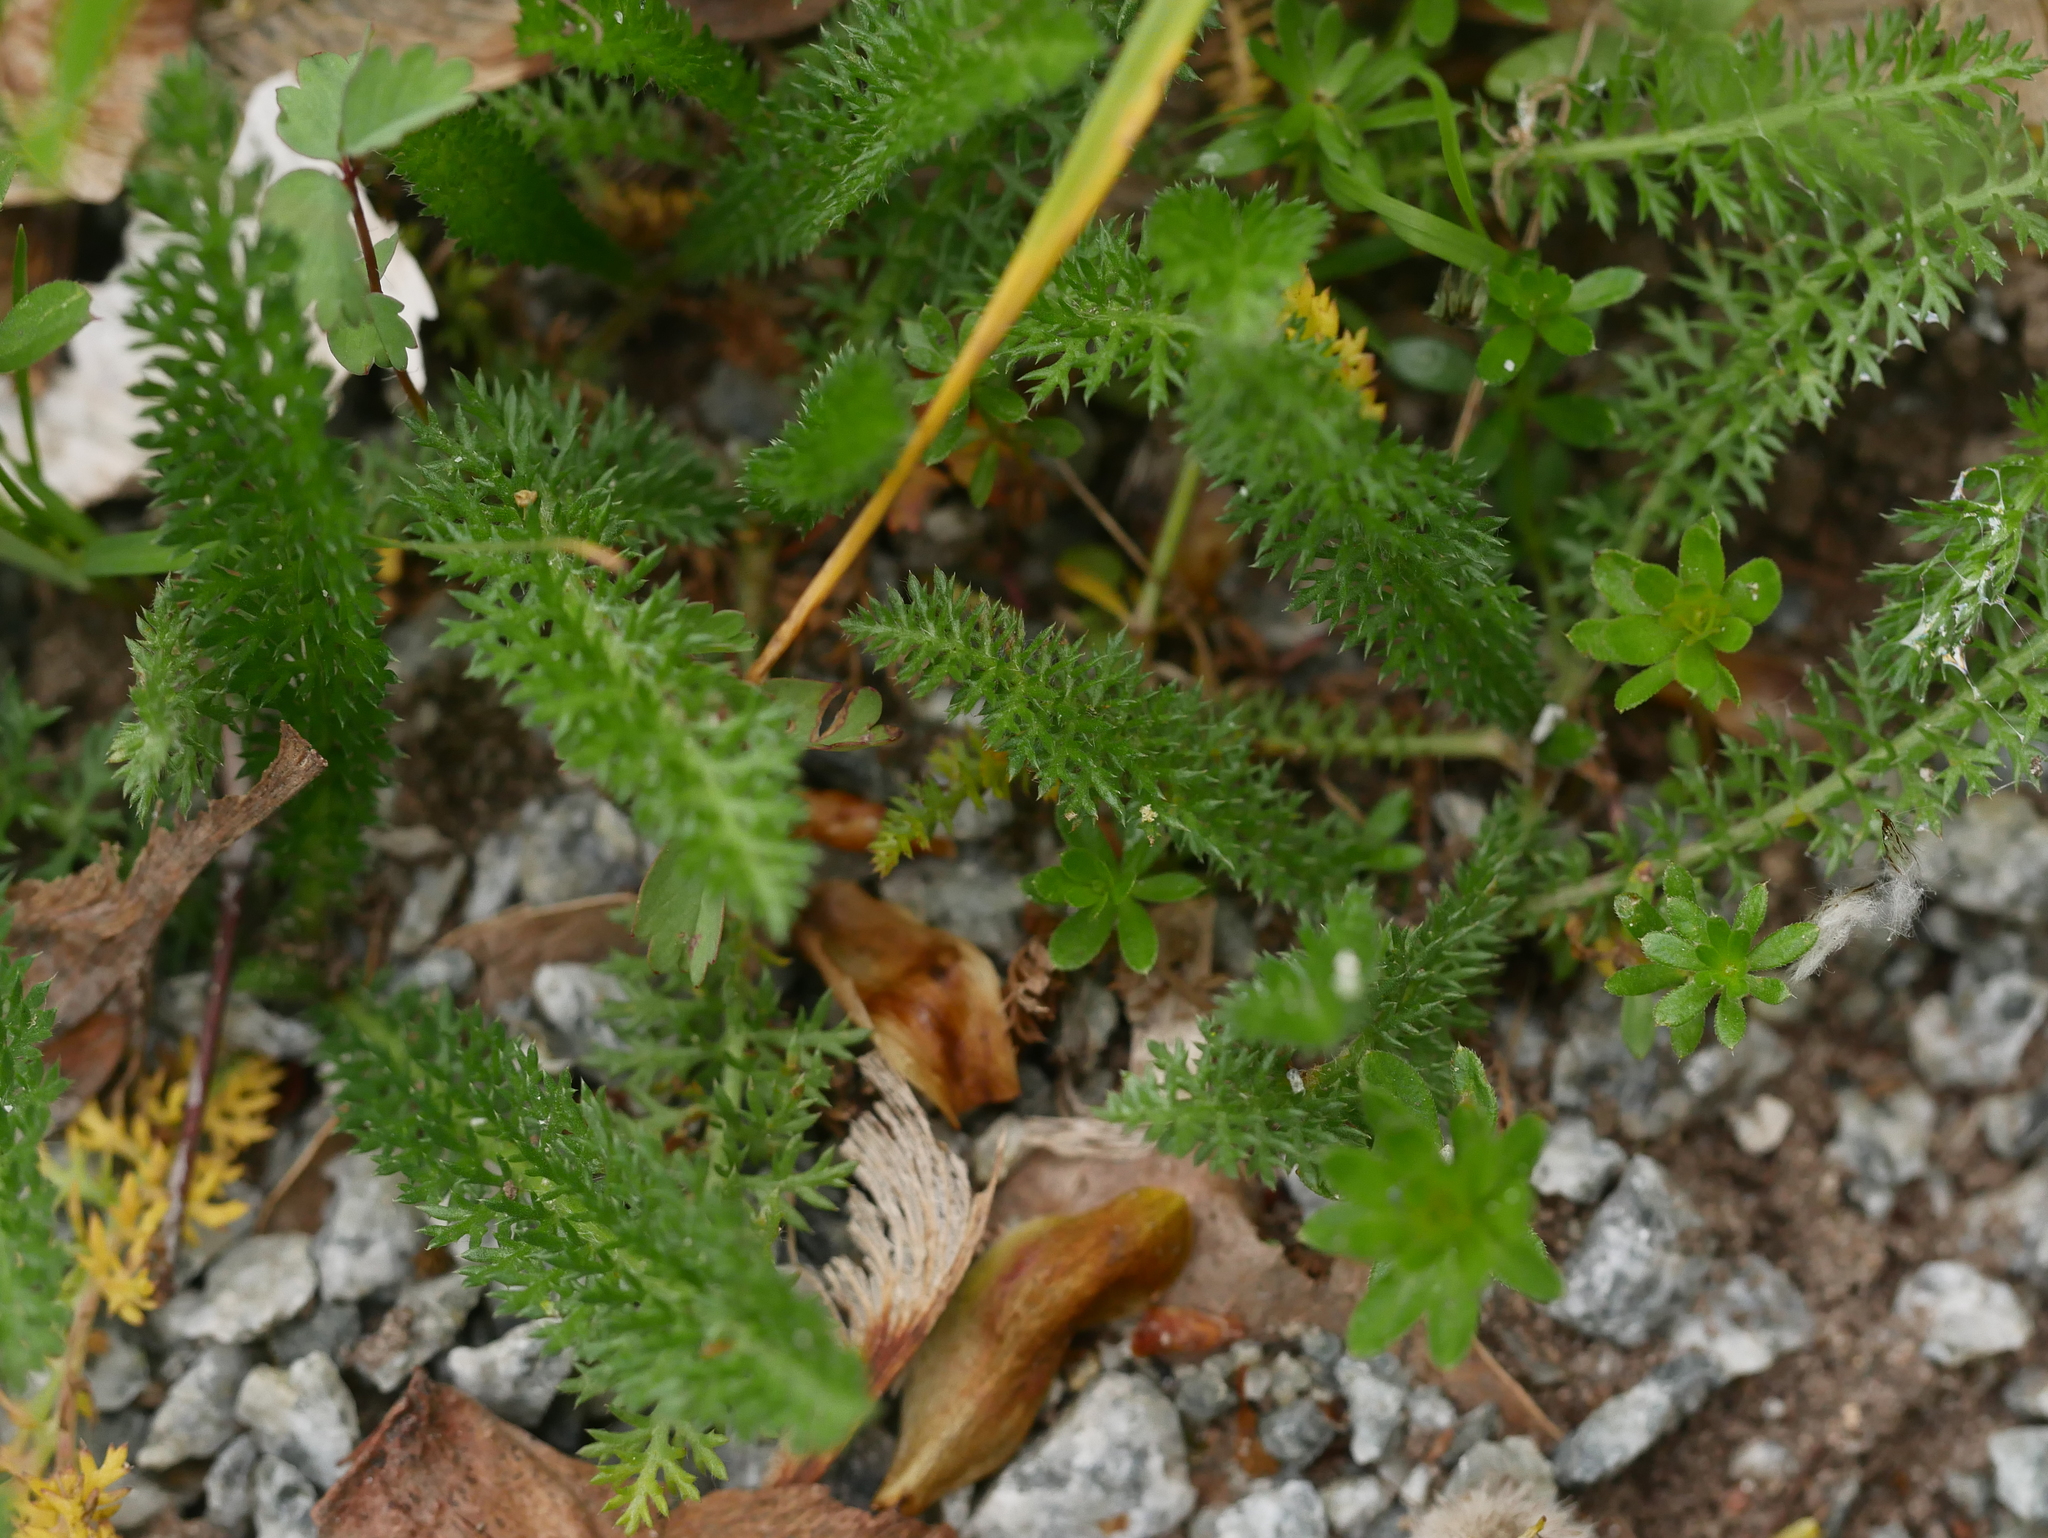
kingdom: Plantae
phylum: Tracheophyta
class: Magnoliopsida
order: Asterales
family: Asteraceae
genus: Achillea
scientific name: Achillea millefolium
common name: Yarrow
